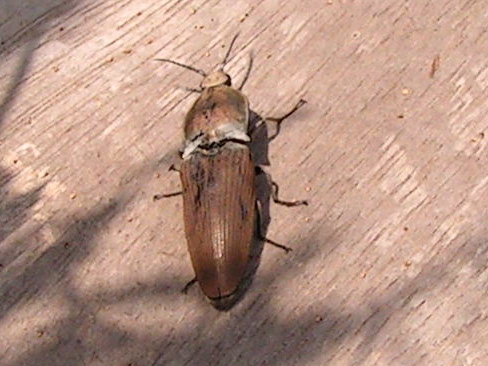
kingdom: Animalia
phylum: Arthropoda
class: Insecta
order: Coleoptera
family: Elateridae
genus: Chalcolepidius
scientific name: Chalcolepidius
